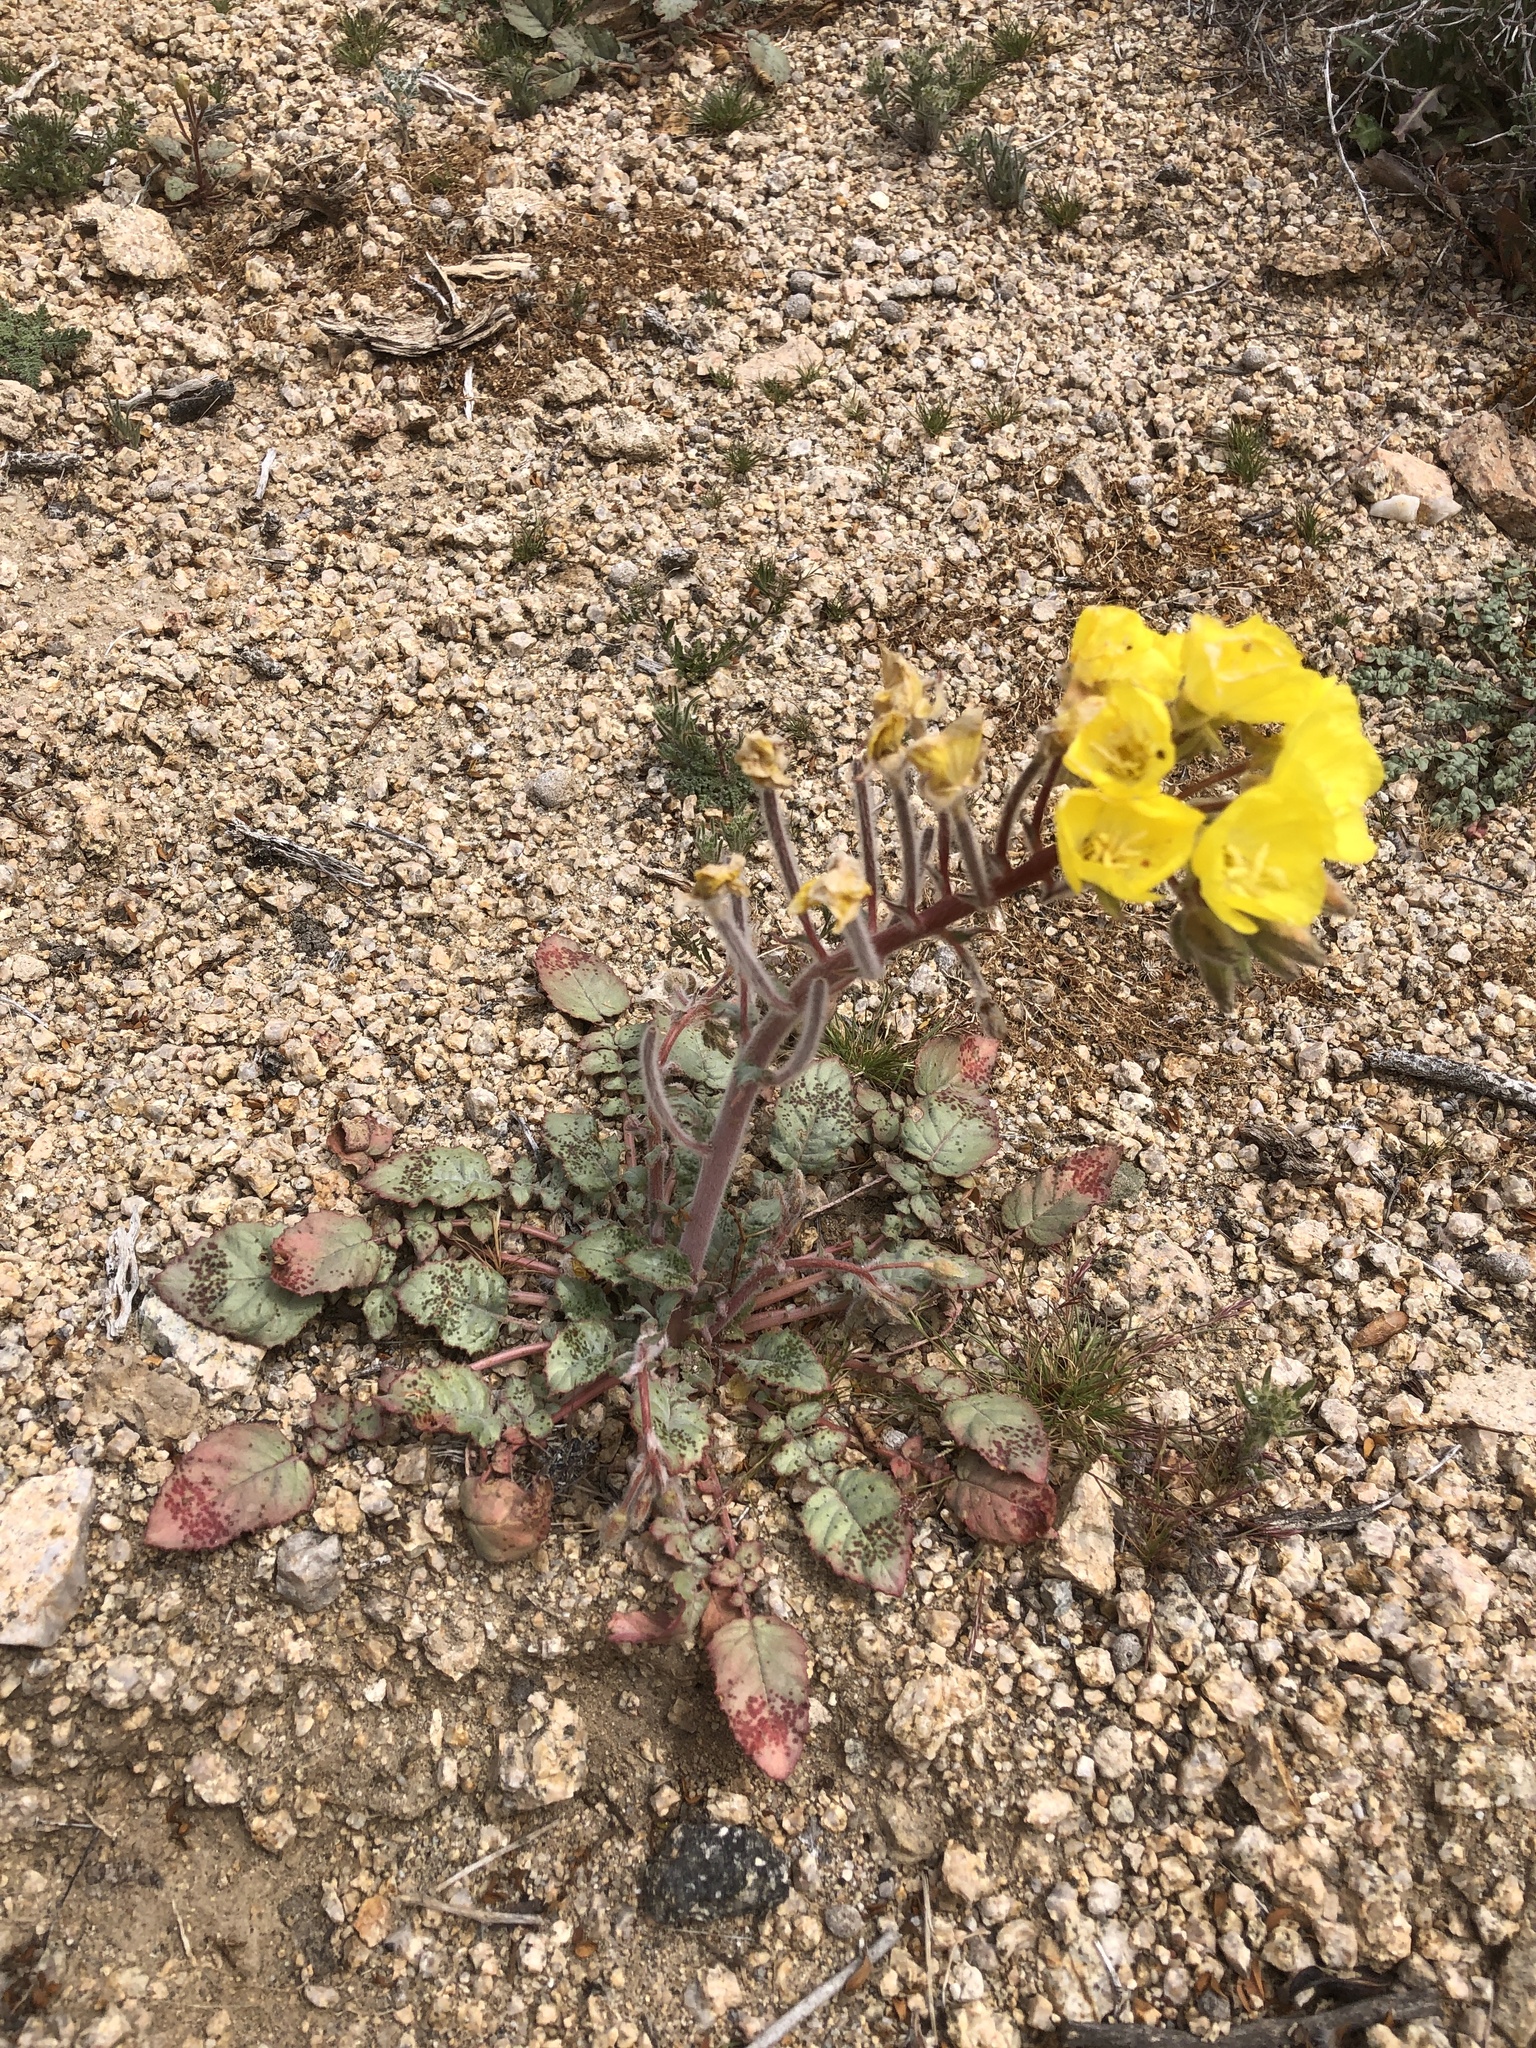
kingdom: Plantae
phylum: Tracheophyta
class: Magnoliopsida
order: Myrtales
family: Onagraceae
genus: Chylismia
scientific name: Chylismia brevipes
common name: Yellow cups
